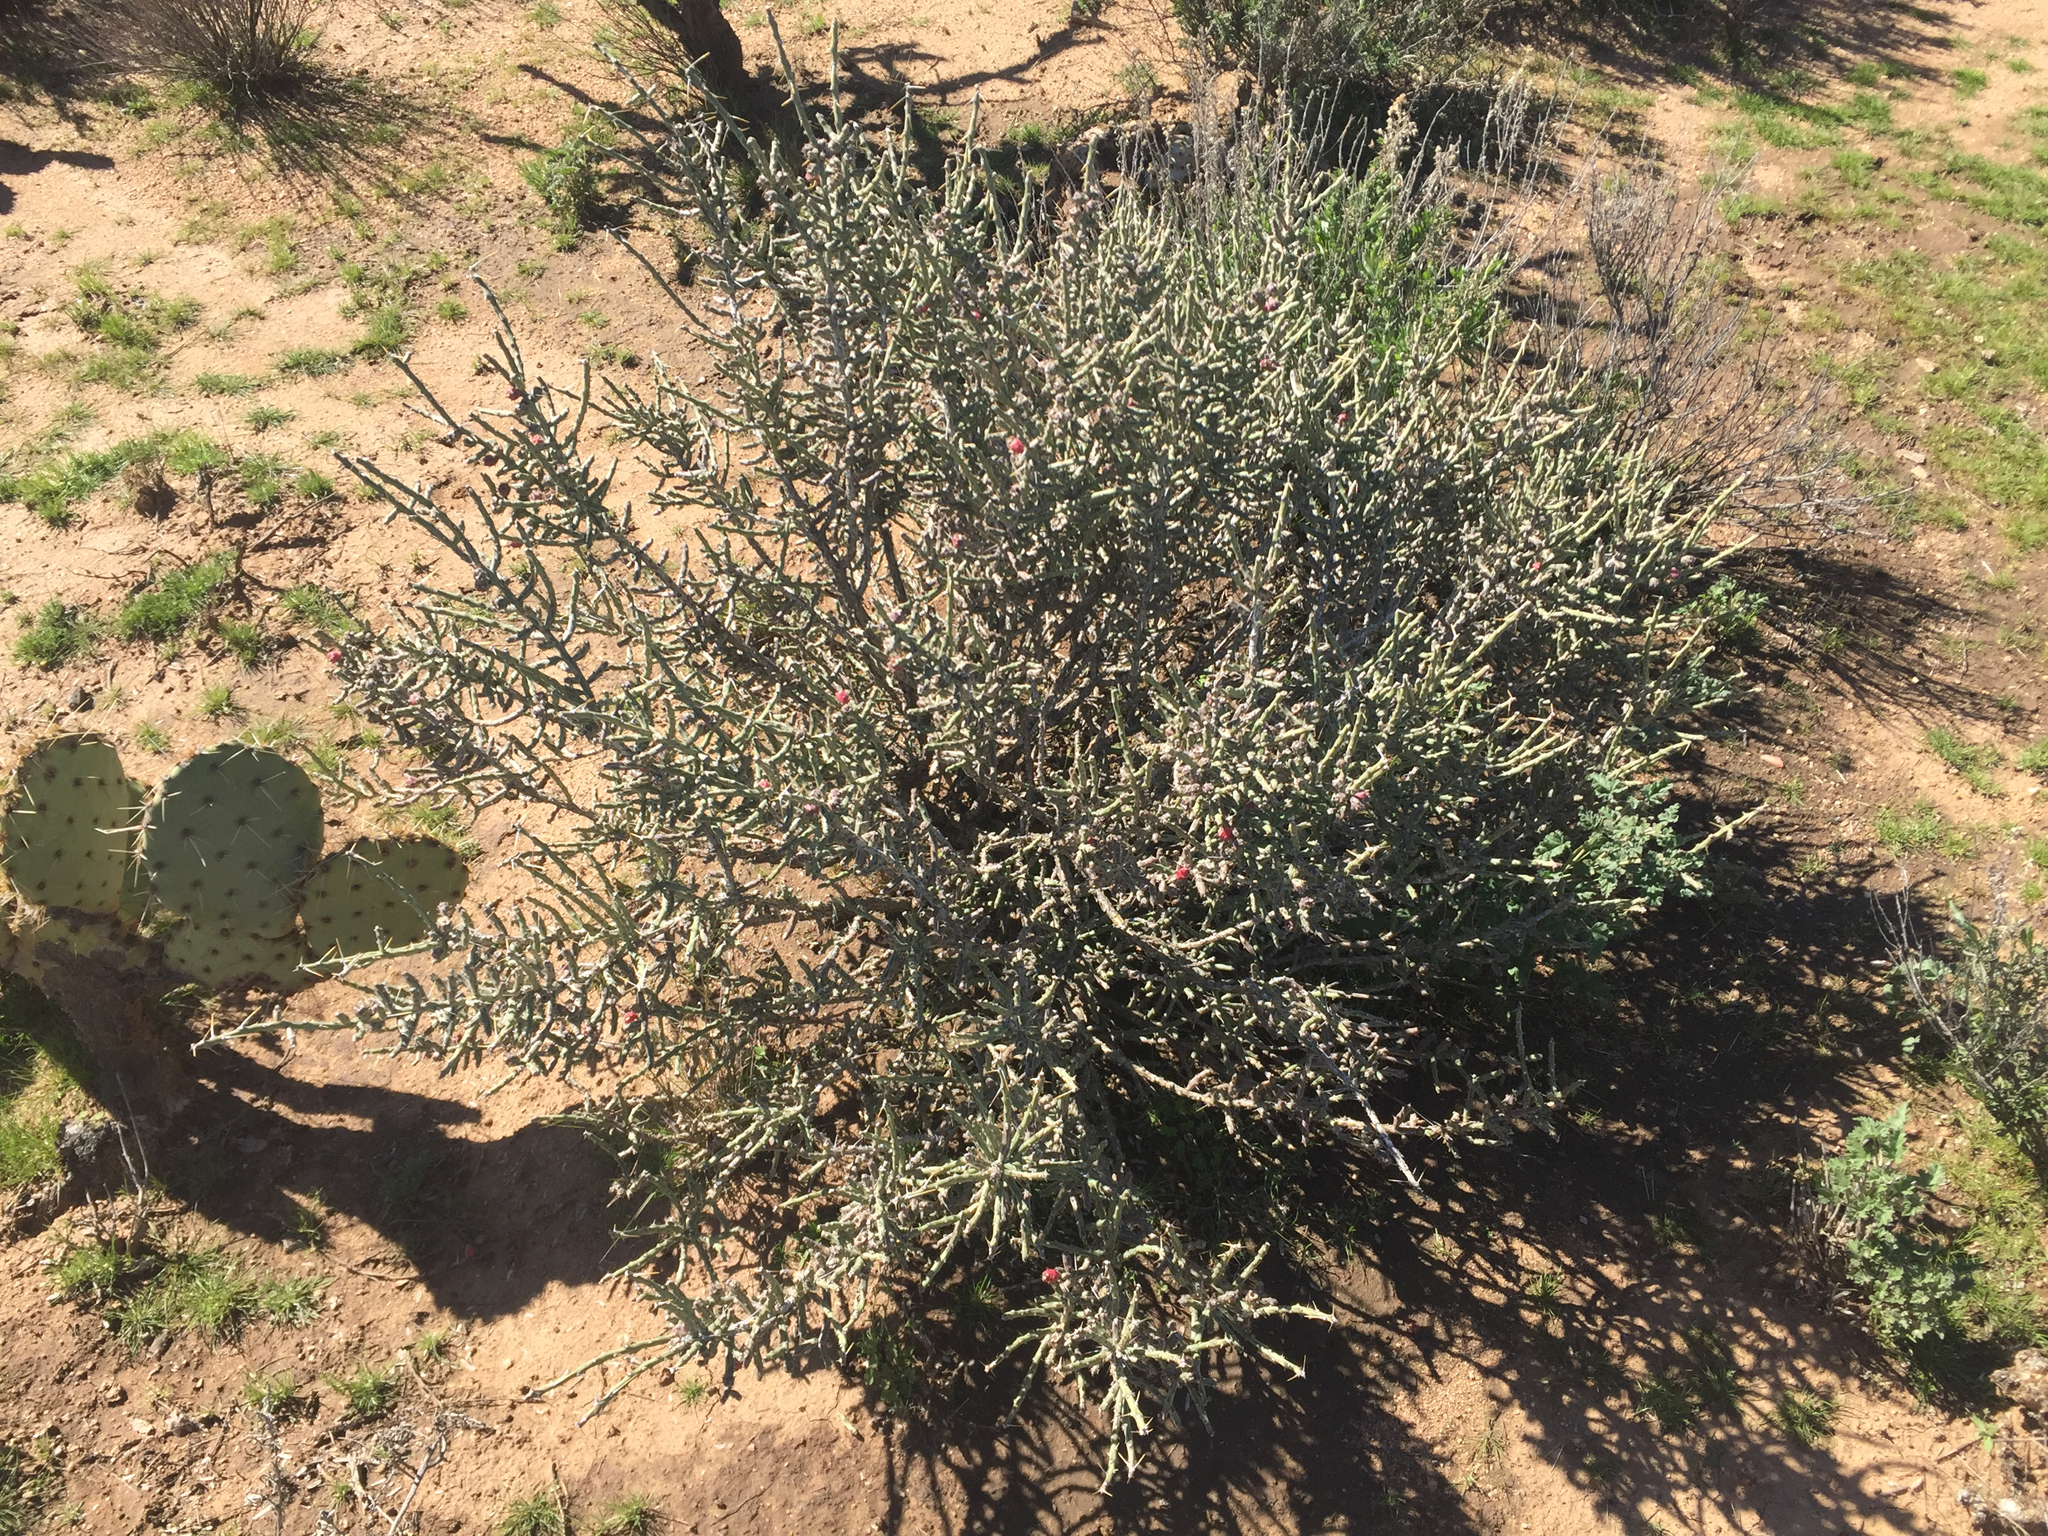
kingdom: Plantae
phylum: Tracheophyta
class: Magnoliopsida
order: Caryophyllales
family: Cactaceae
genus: Cylindropuntia
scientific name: Cylindropuntia leptocaulis
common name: Christmas cactus
